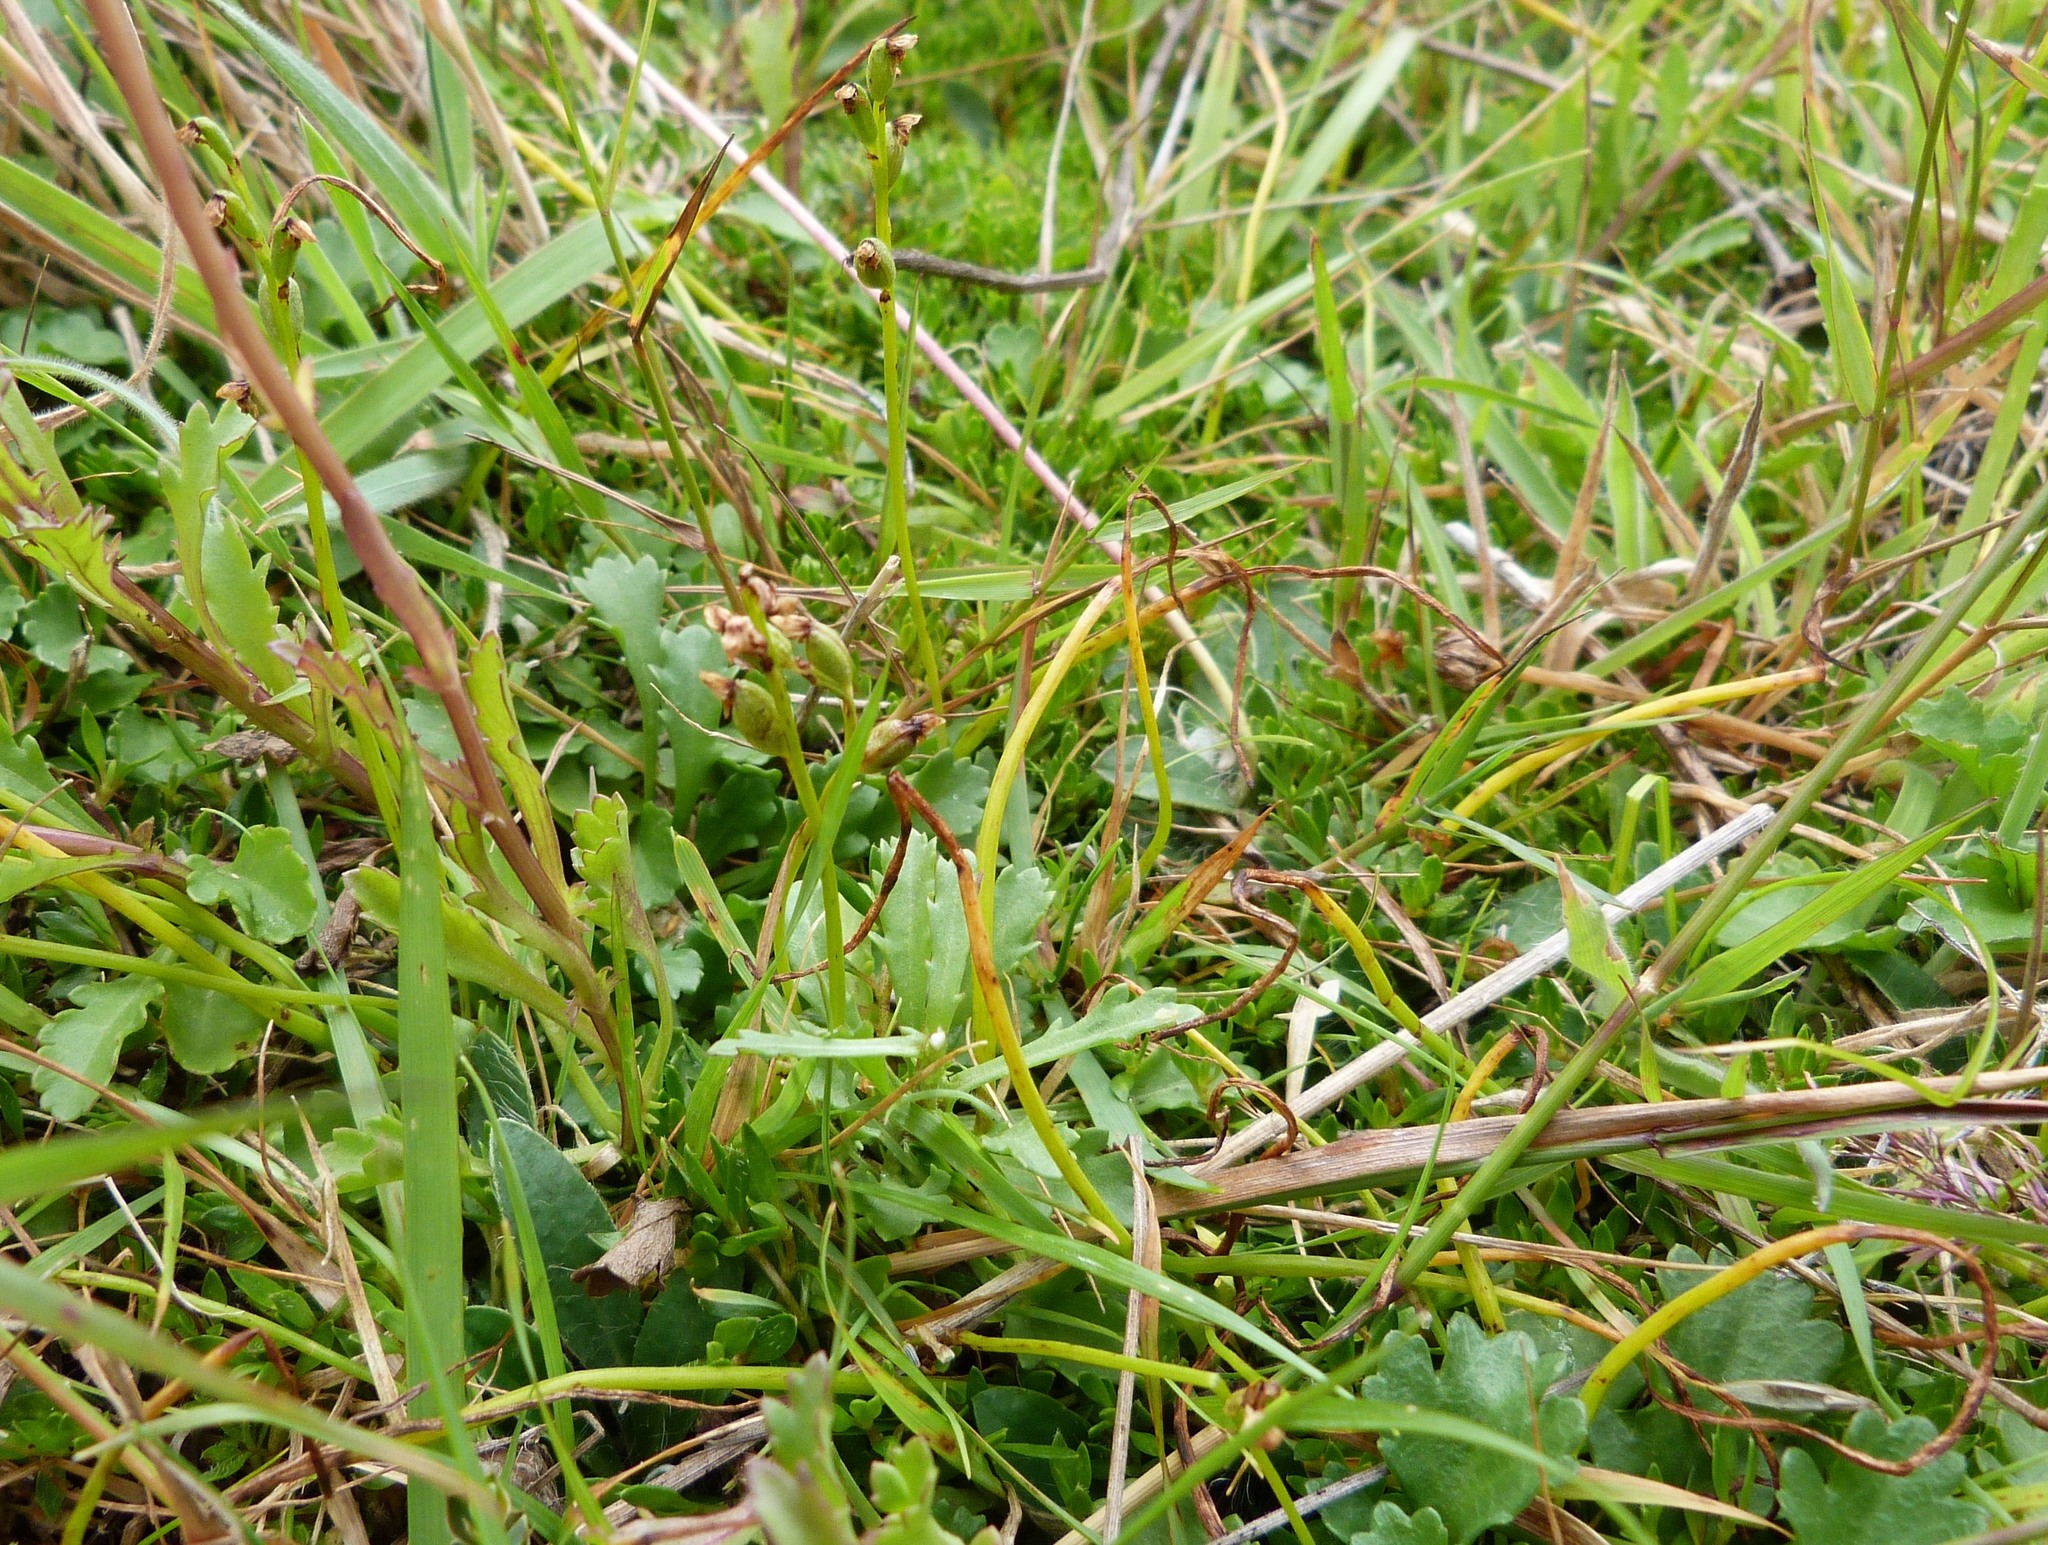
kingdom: Plantae
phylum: Tracheophyta
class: Liliopsida
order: Asparagales
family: Orchidaceae
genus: Microtis
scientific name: Microtis oligantha
